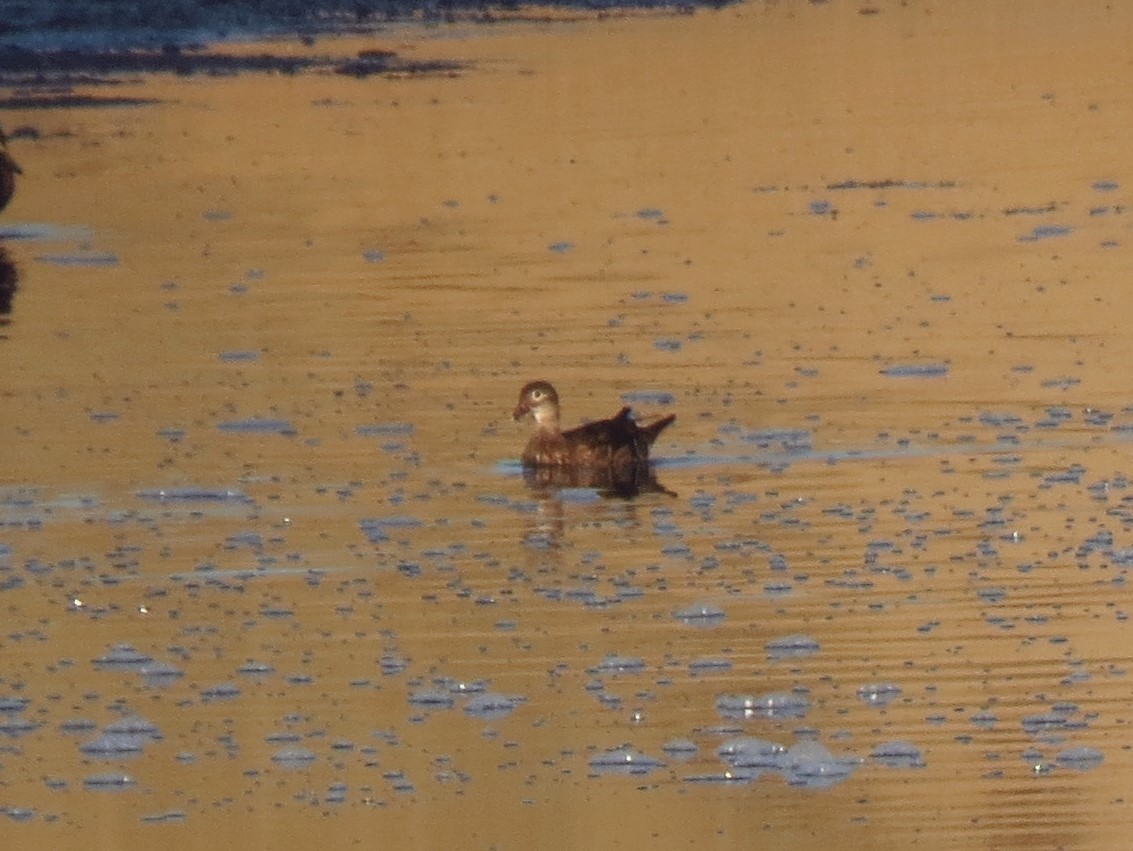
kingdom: Animalia
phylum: Chordata
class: Aves
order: Anseriformes
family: Anatidae
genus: Aix
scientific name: Aix sponsa
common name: Wood duck
